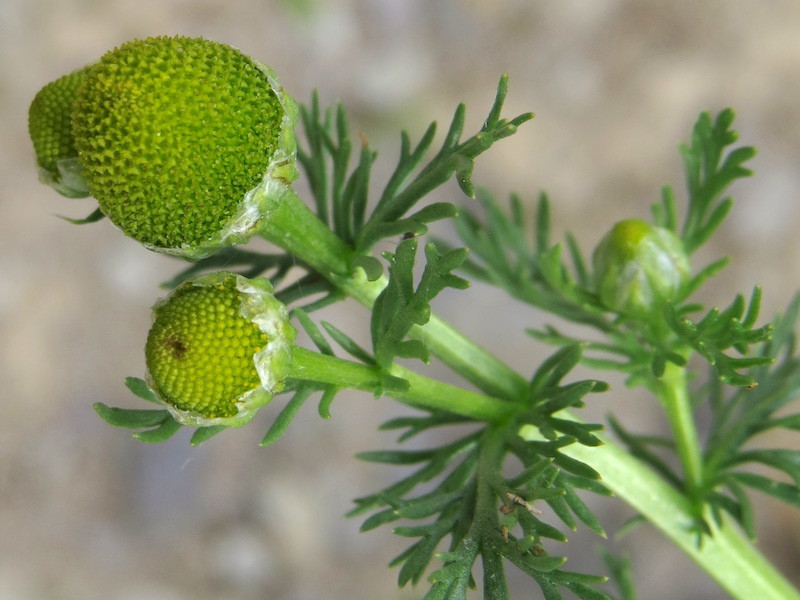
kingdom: Plantae
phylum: Tracheophyta
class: Magnoliopsida
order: Asterales
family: Asteraceae
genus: Matricaria
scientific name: Matricaria discoidea
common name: Disc mayweed
